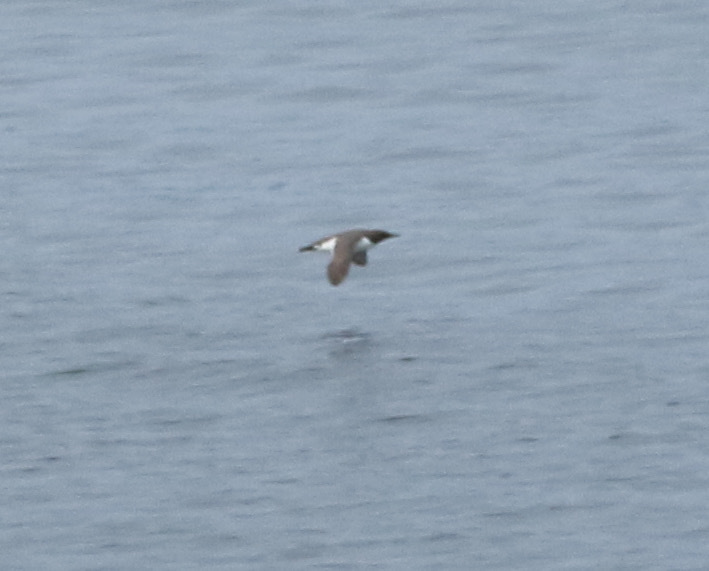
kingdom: Animalia
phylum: Chordata
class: Aves
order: Charadriiformes
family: Alcidae
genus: Uria
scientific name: Uria aalge
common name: Common murre
